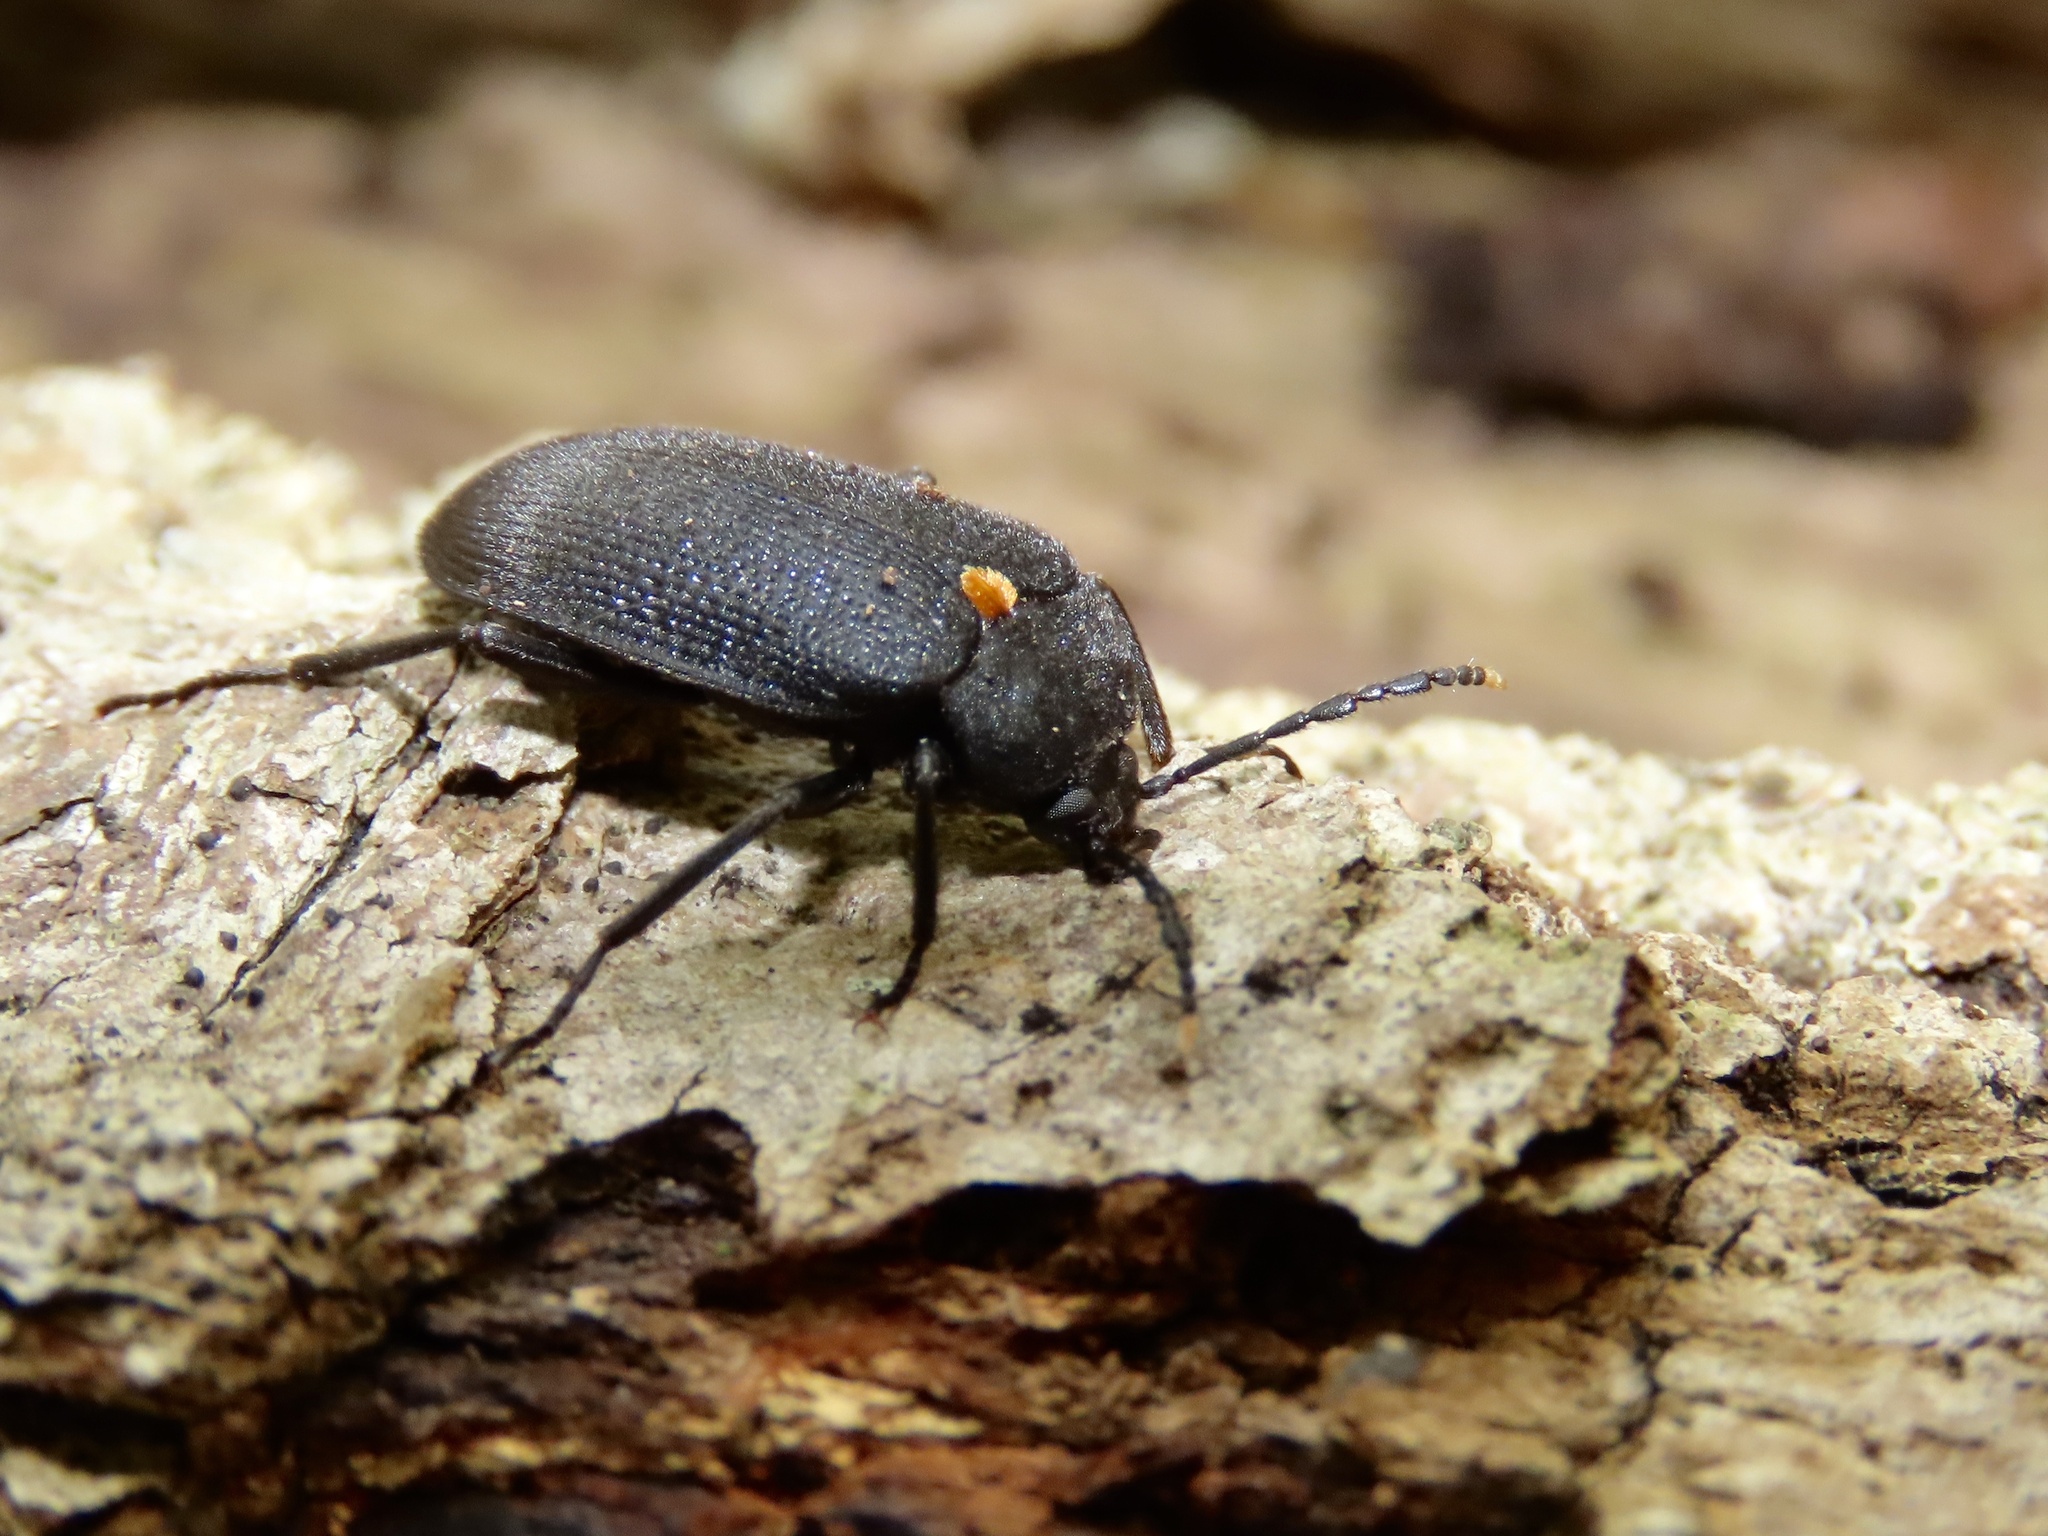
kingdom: Animalia
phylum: Arthropoda
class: Insecta
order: Coleoptera
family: Tetratomidae
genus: Penthe
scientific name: Penthe obliquata
